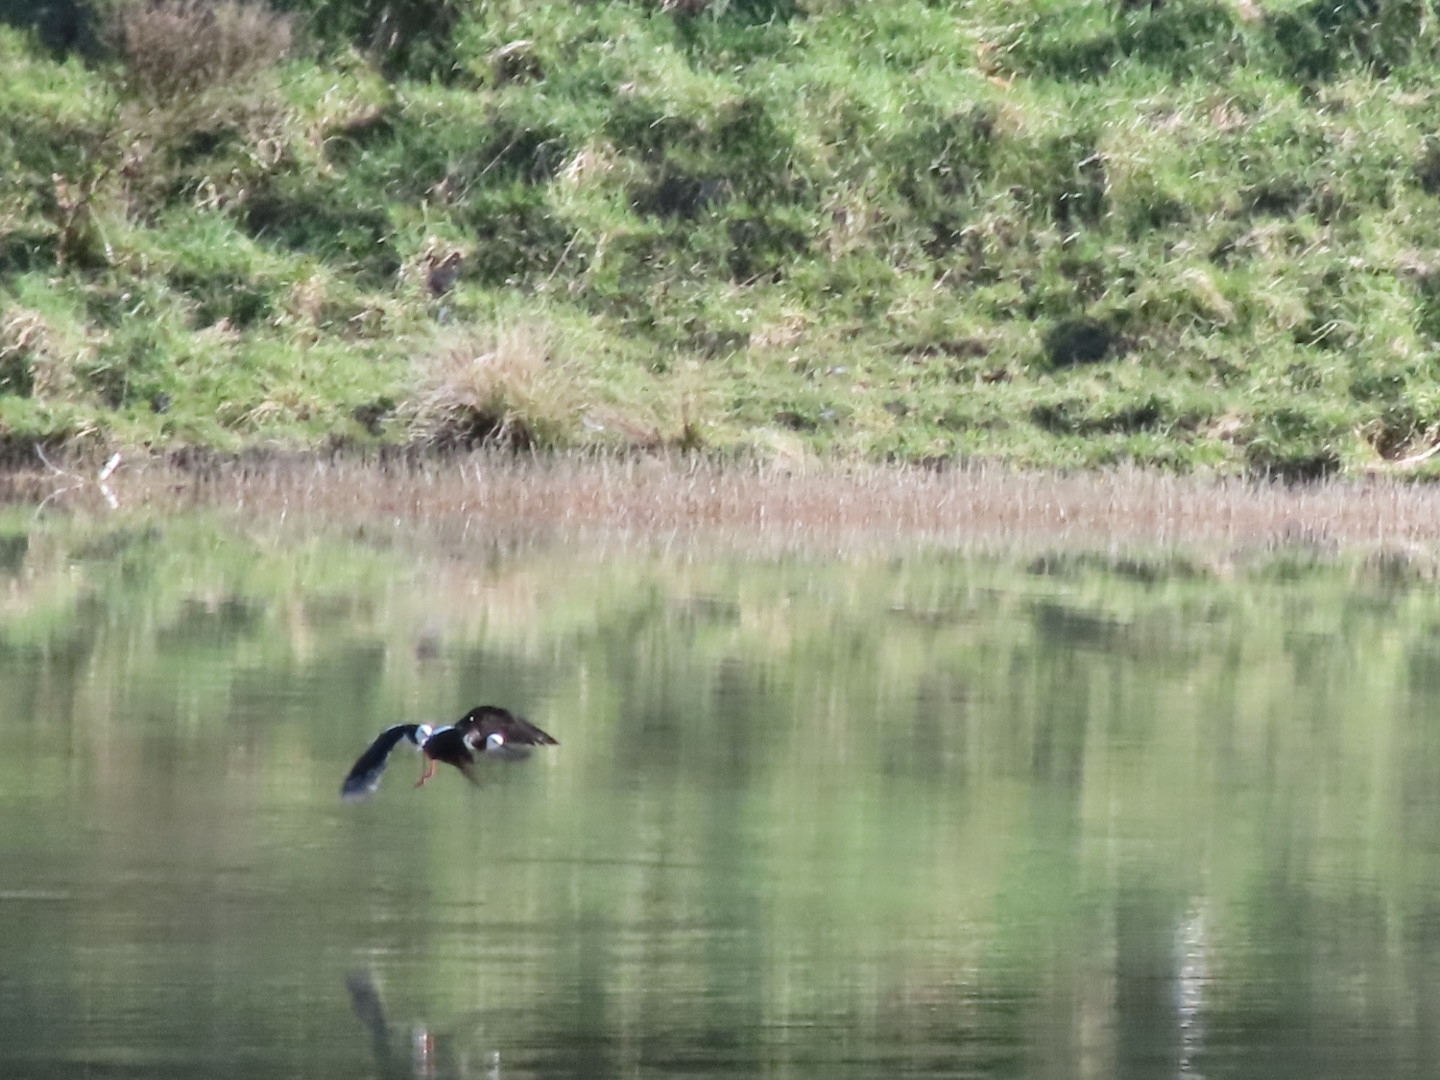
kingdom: Animalia
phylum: Chordata
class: Aves
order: Charadriiformes
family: Recurvirostridae
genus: Himantopus
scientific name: Himantopus leucocephalus
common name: White-headed stilt
